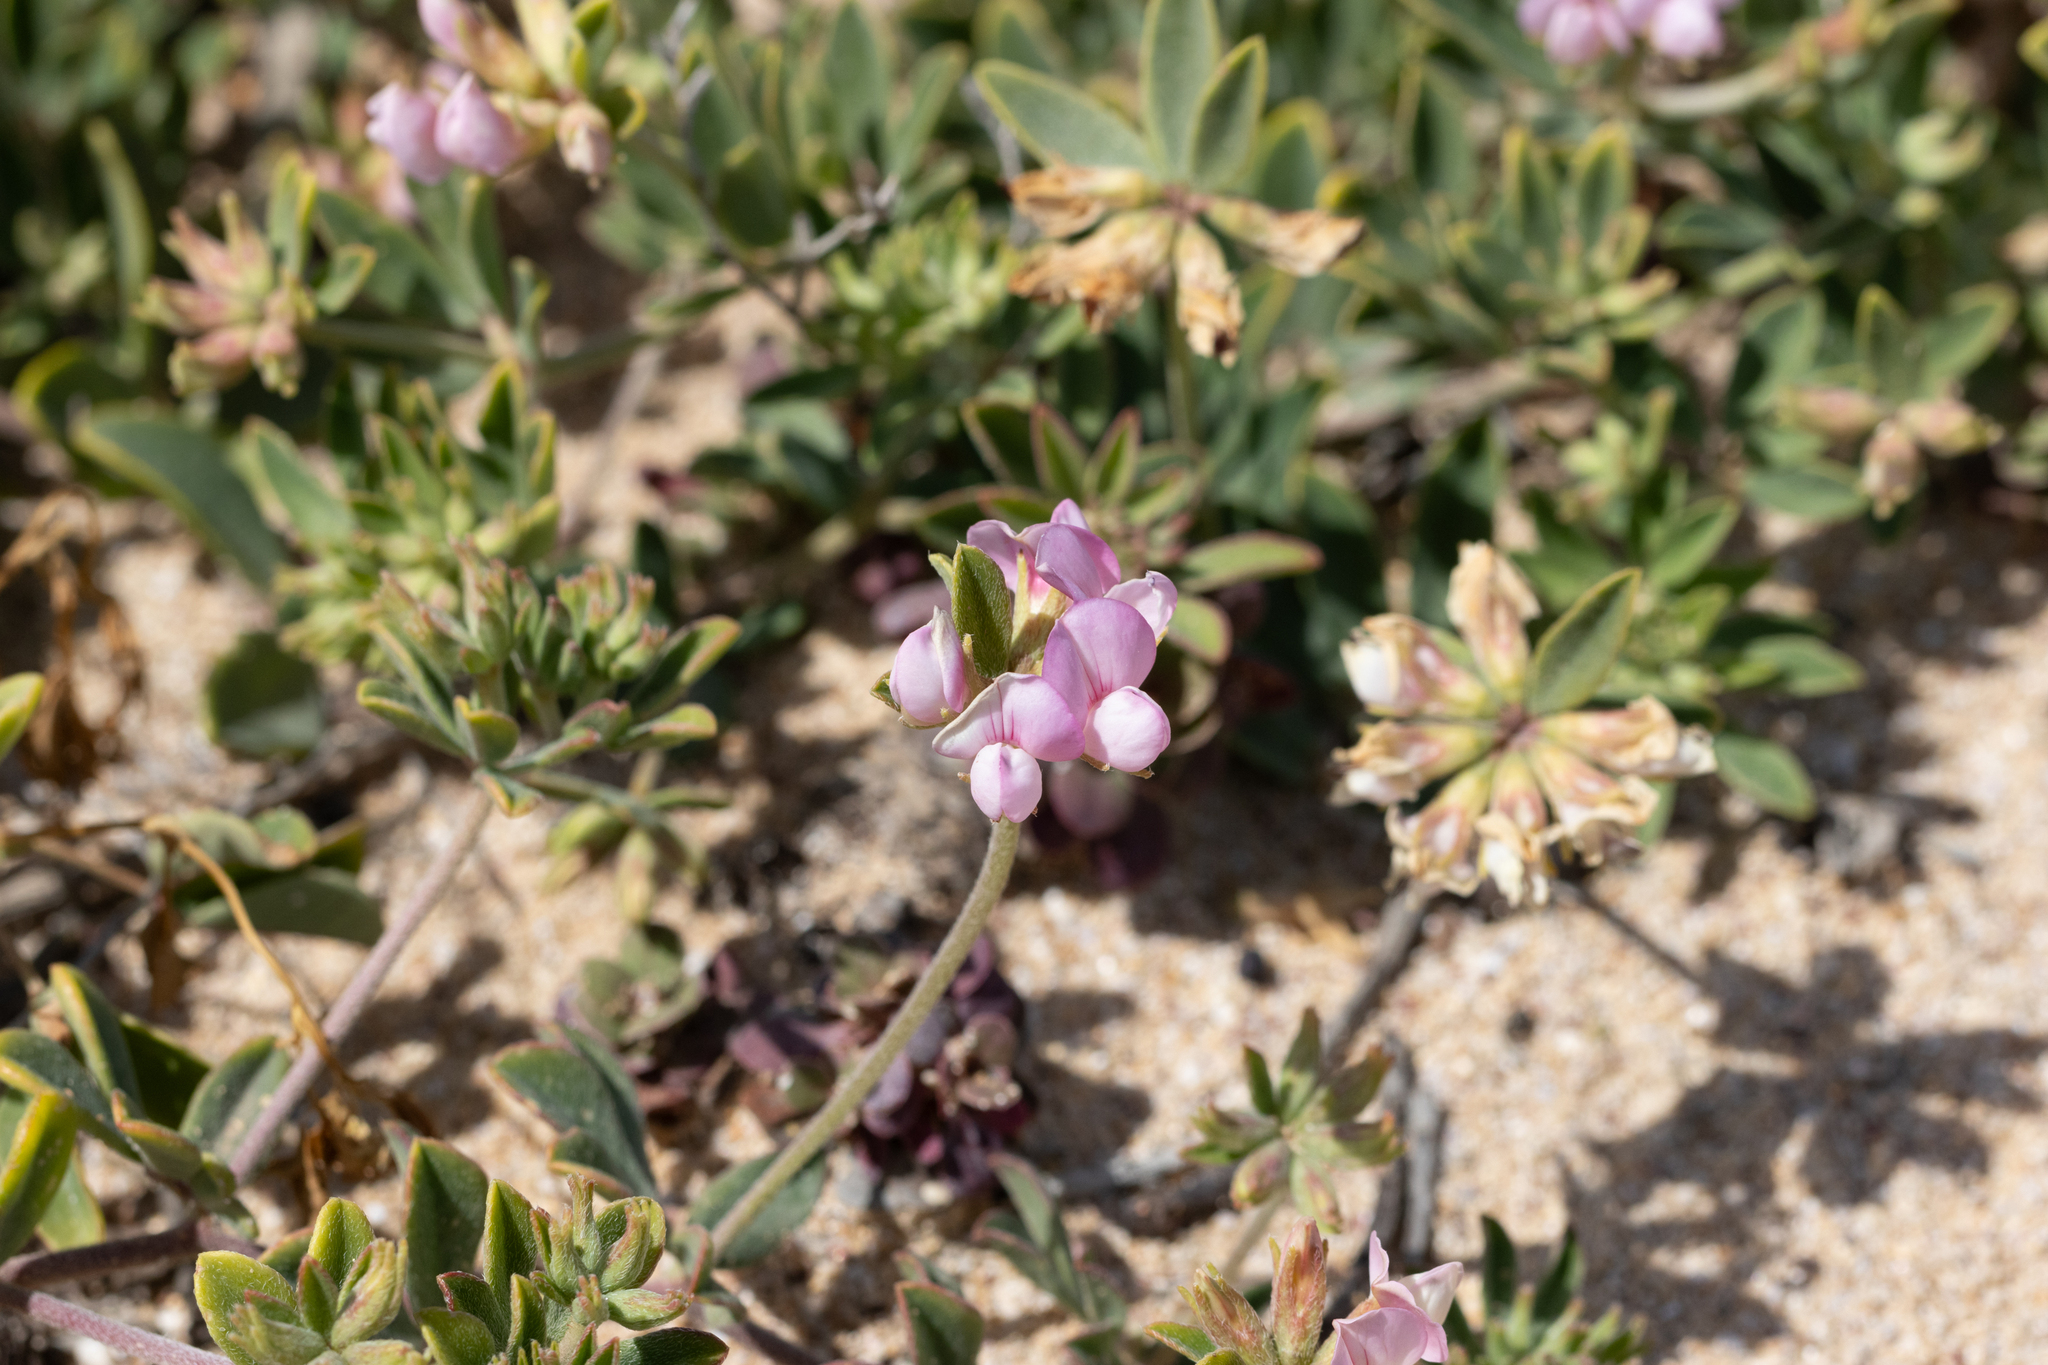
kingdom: Plantae
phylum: Tracheophyta
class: Magnoliopsida
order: Fabales
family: Fabaceae
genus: Lotus
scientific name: Lotus australis
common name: Australian trefoil
